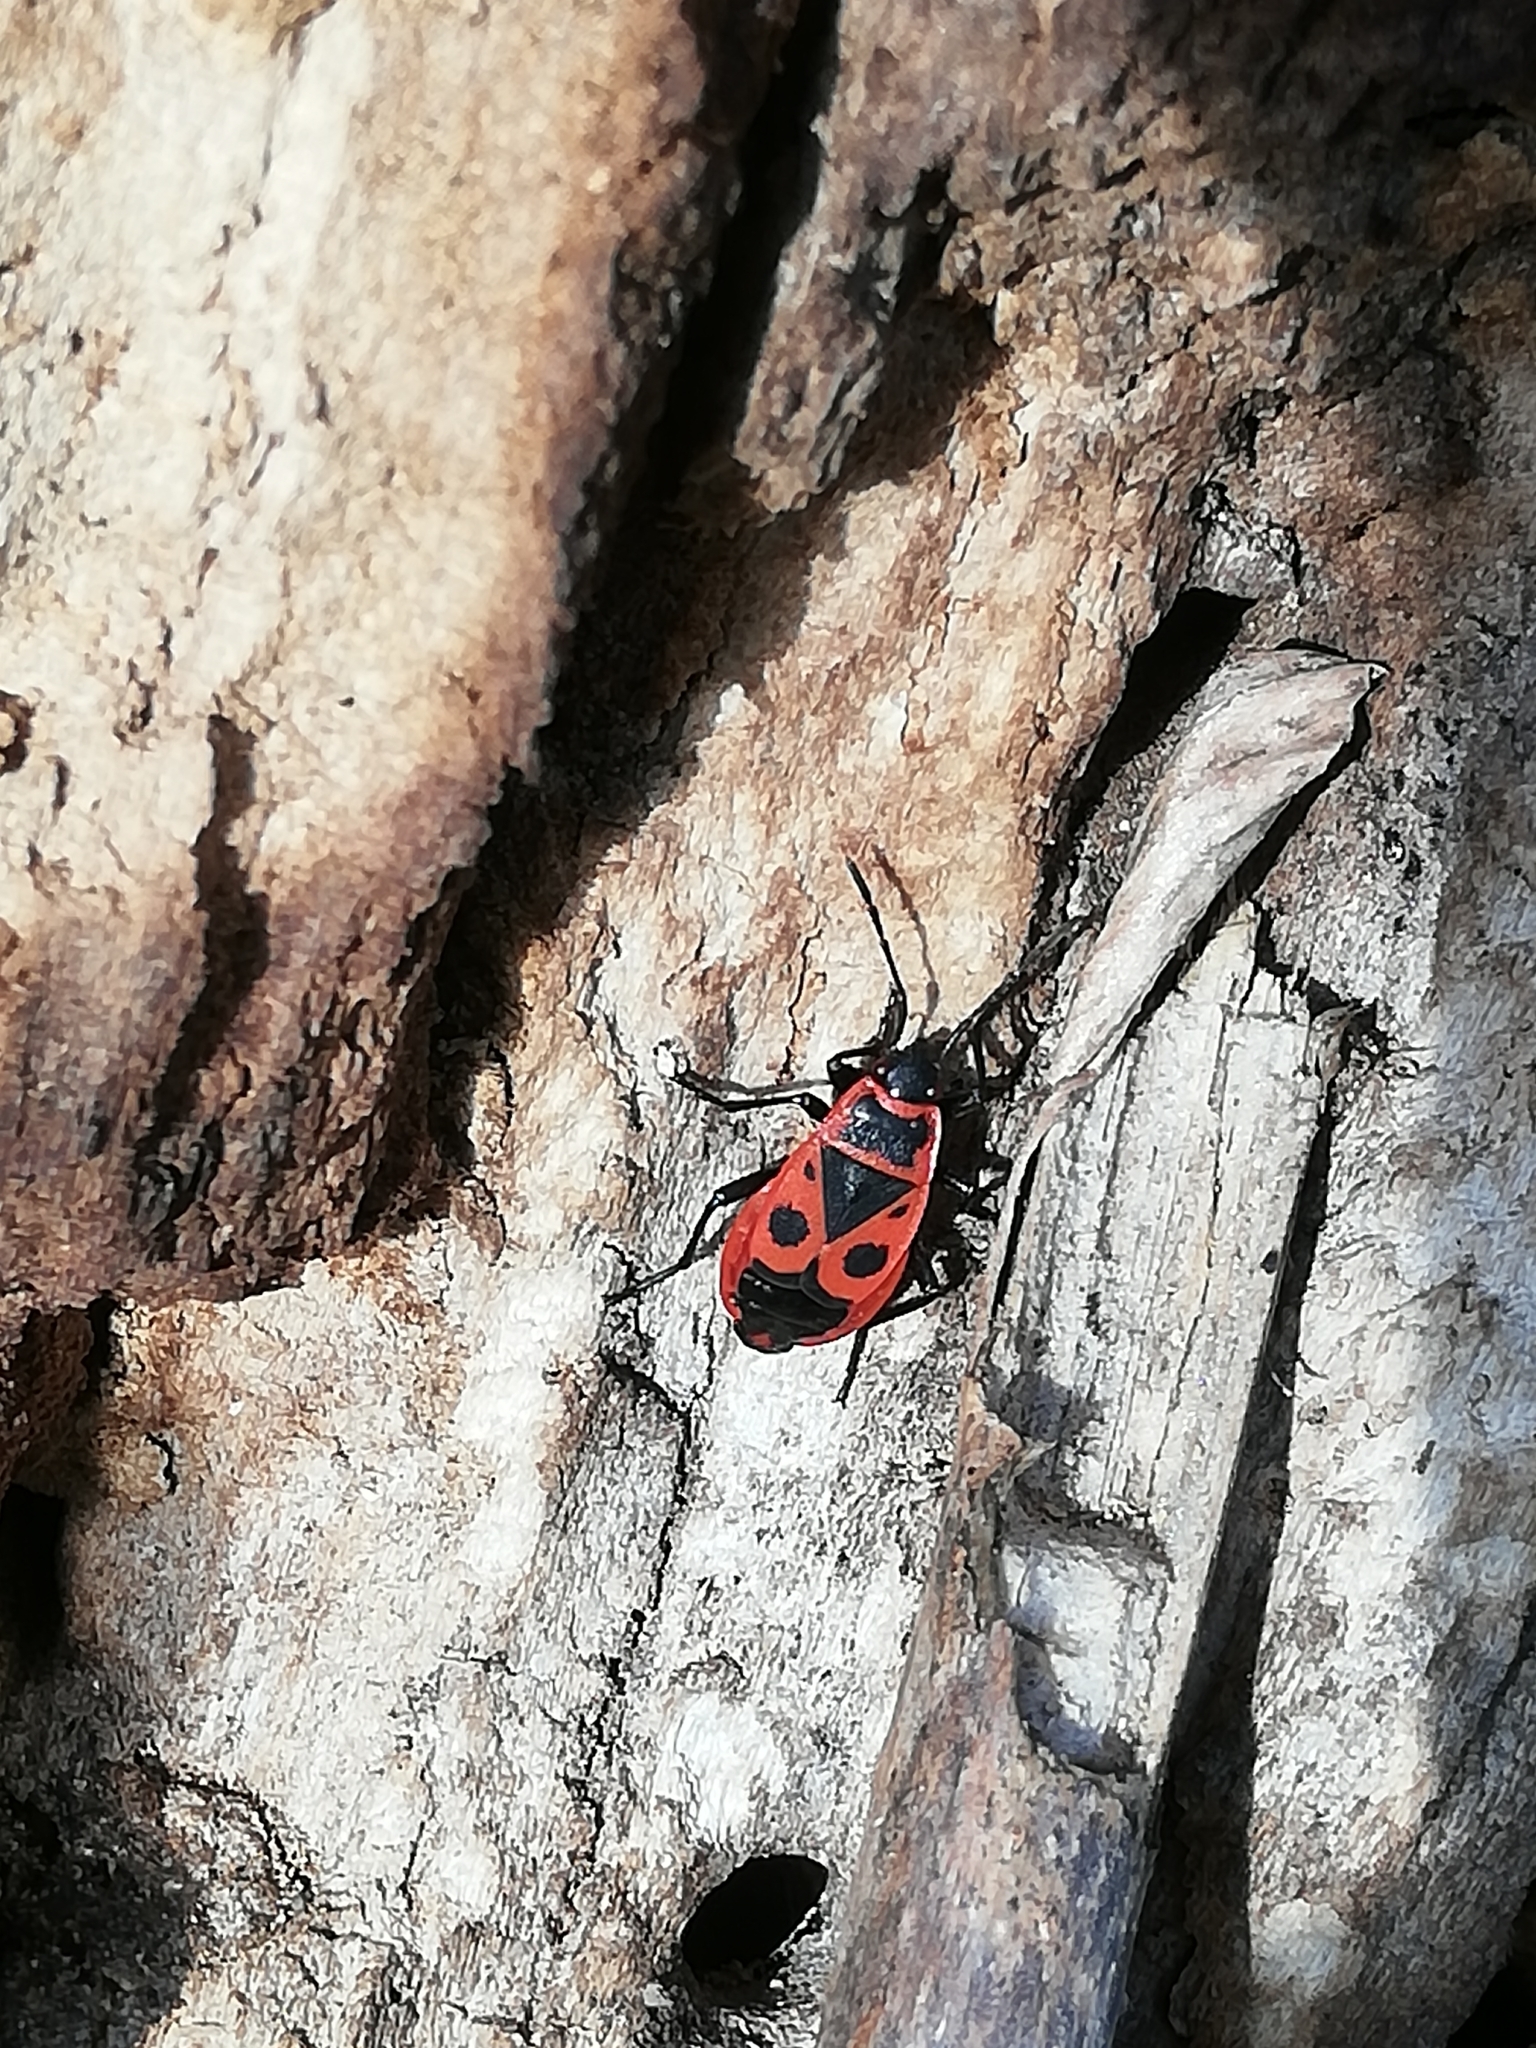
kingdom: Animalia
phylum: Arthropoda
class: Insecta
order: Hemiptera
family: Pyrrhocoridae
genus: Pyrrhocoris
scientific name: Pyrrhocoris apterus
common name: Firebug
